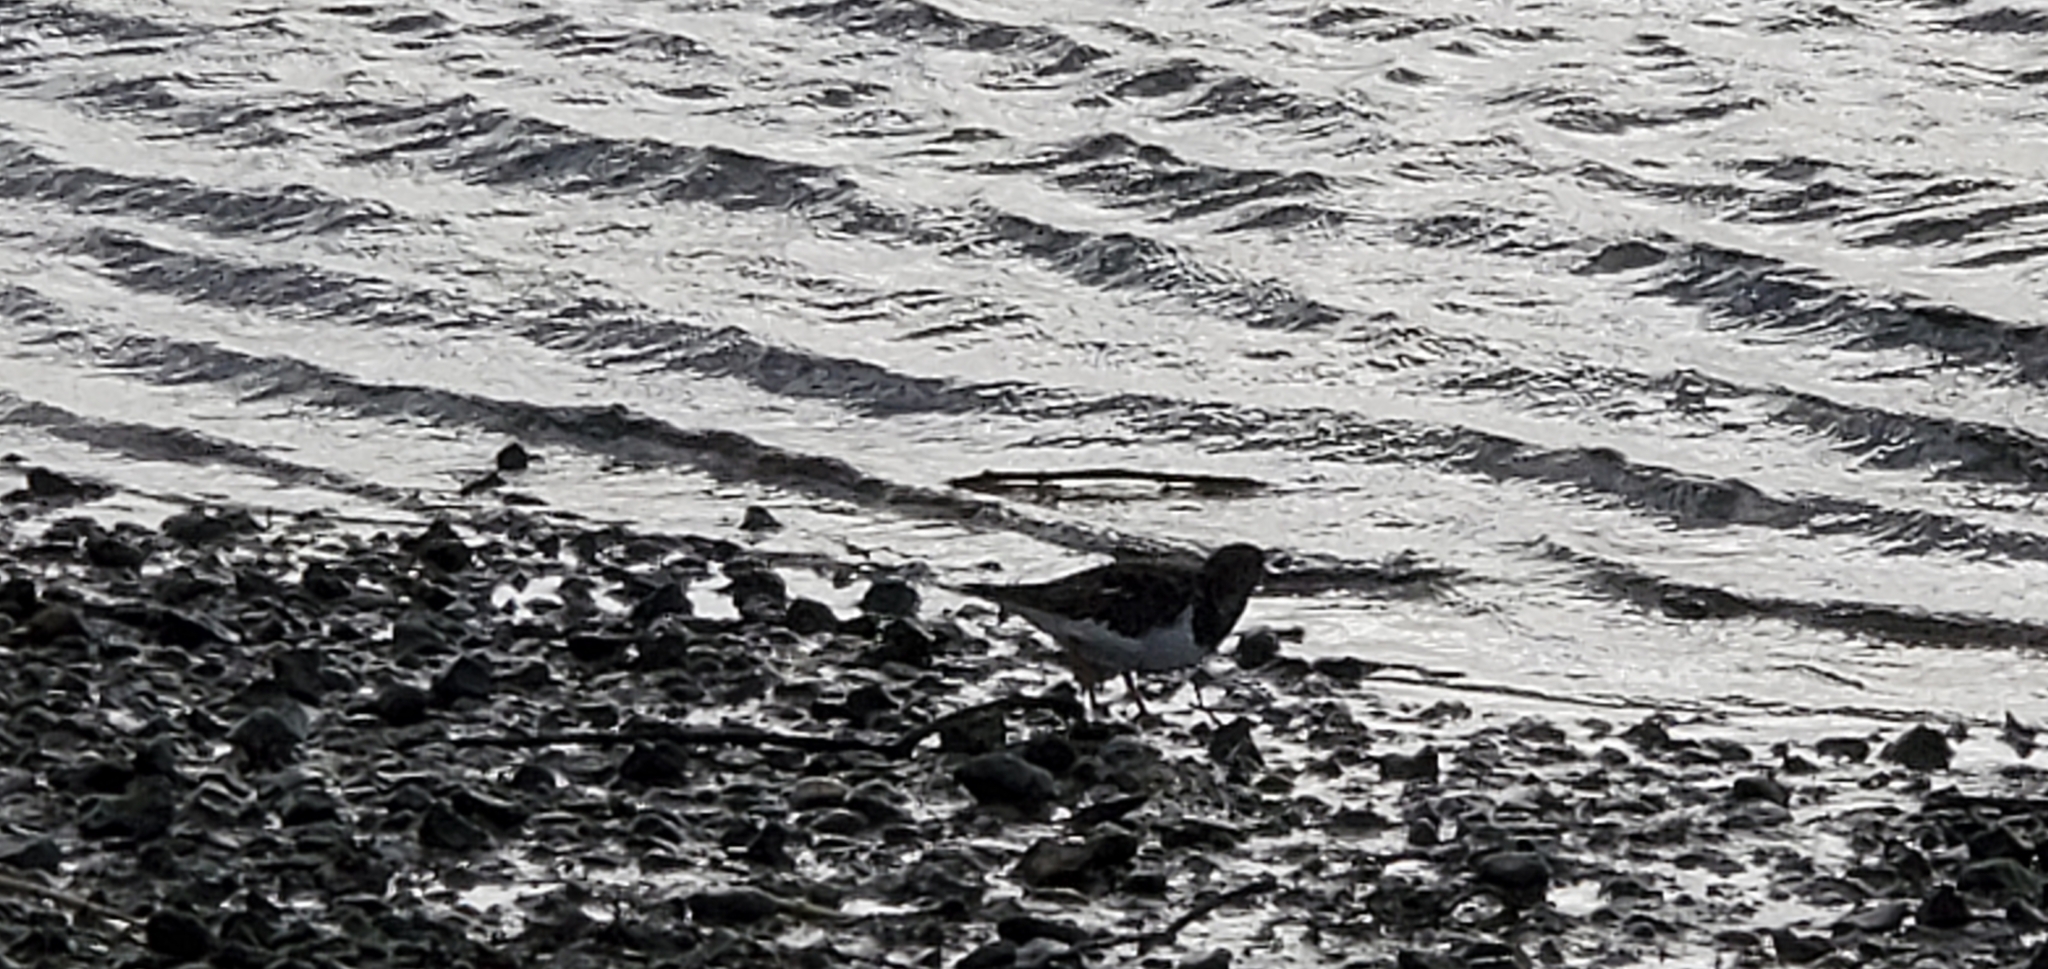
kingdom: Animalia
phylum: Chordata
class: Aves
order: Charadriiformes
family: Scolopacidae
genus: Arenaria
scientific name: Arenaria interpres
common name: Ruddy turnstone
